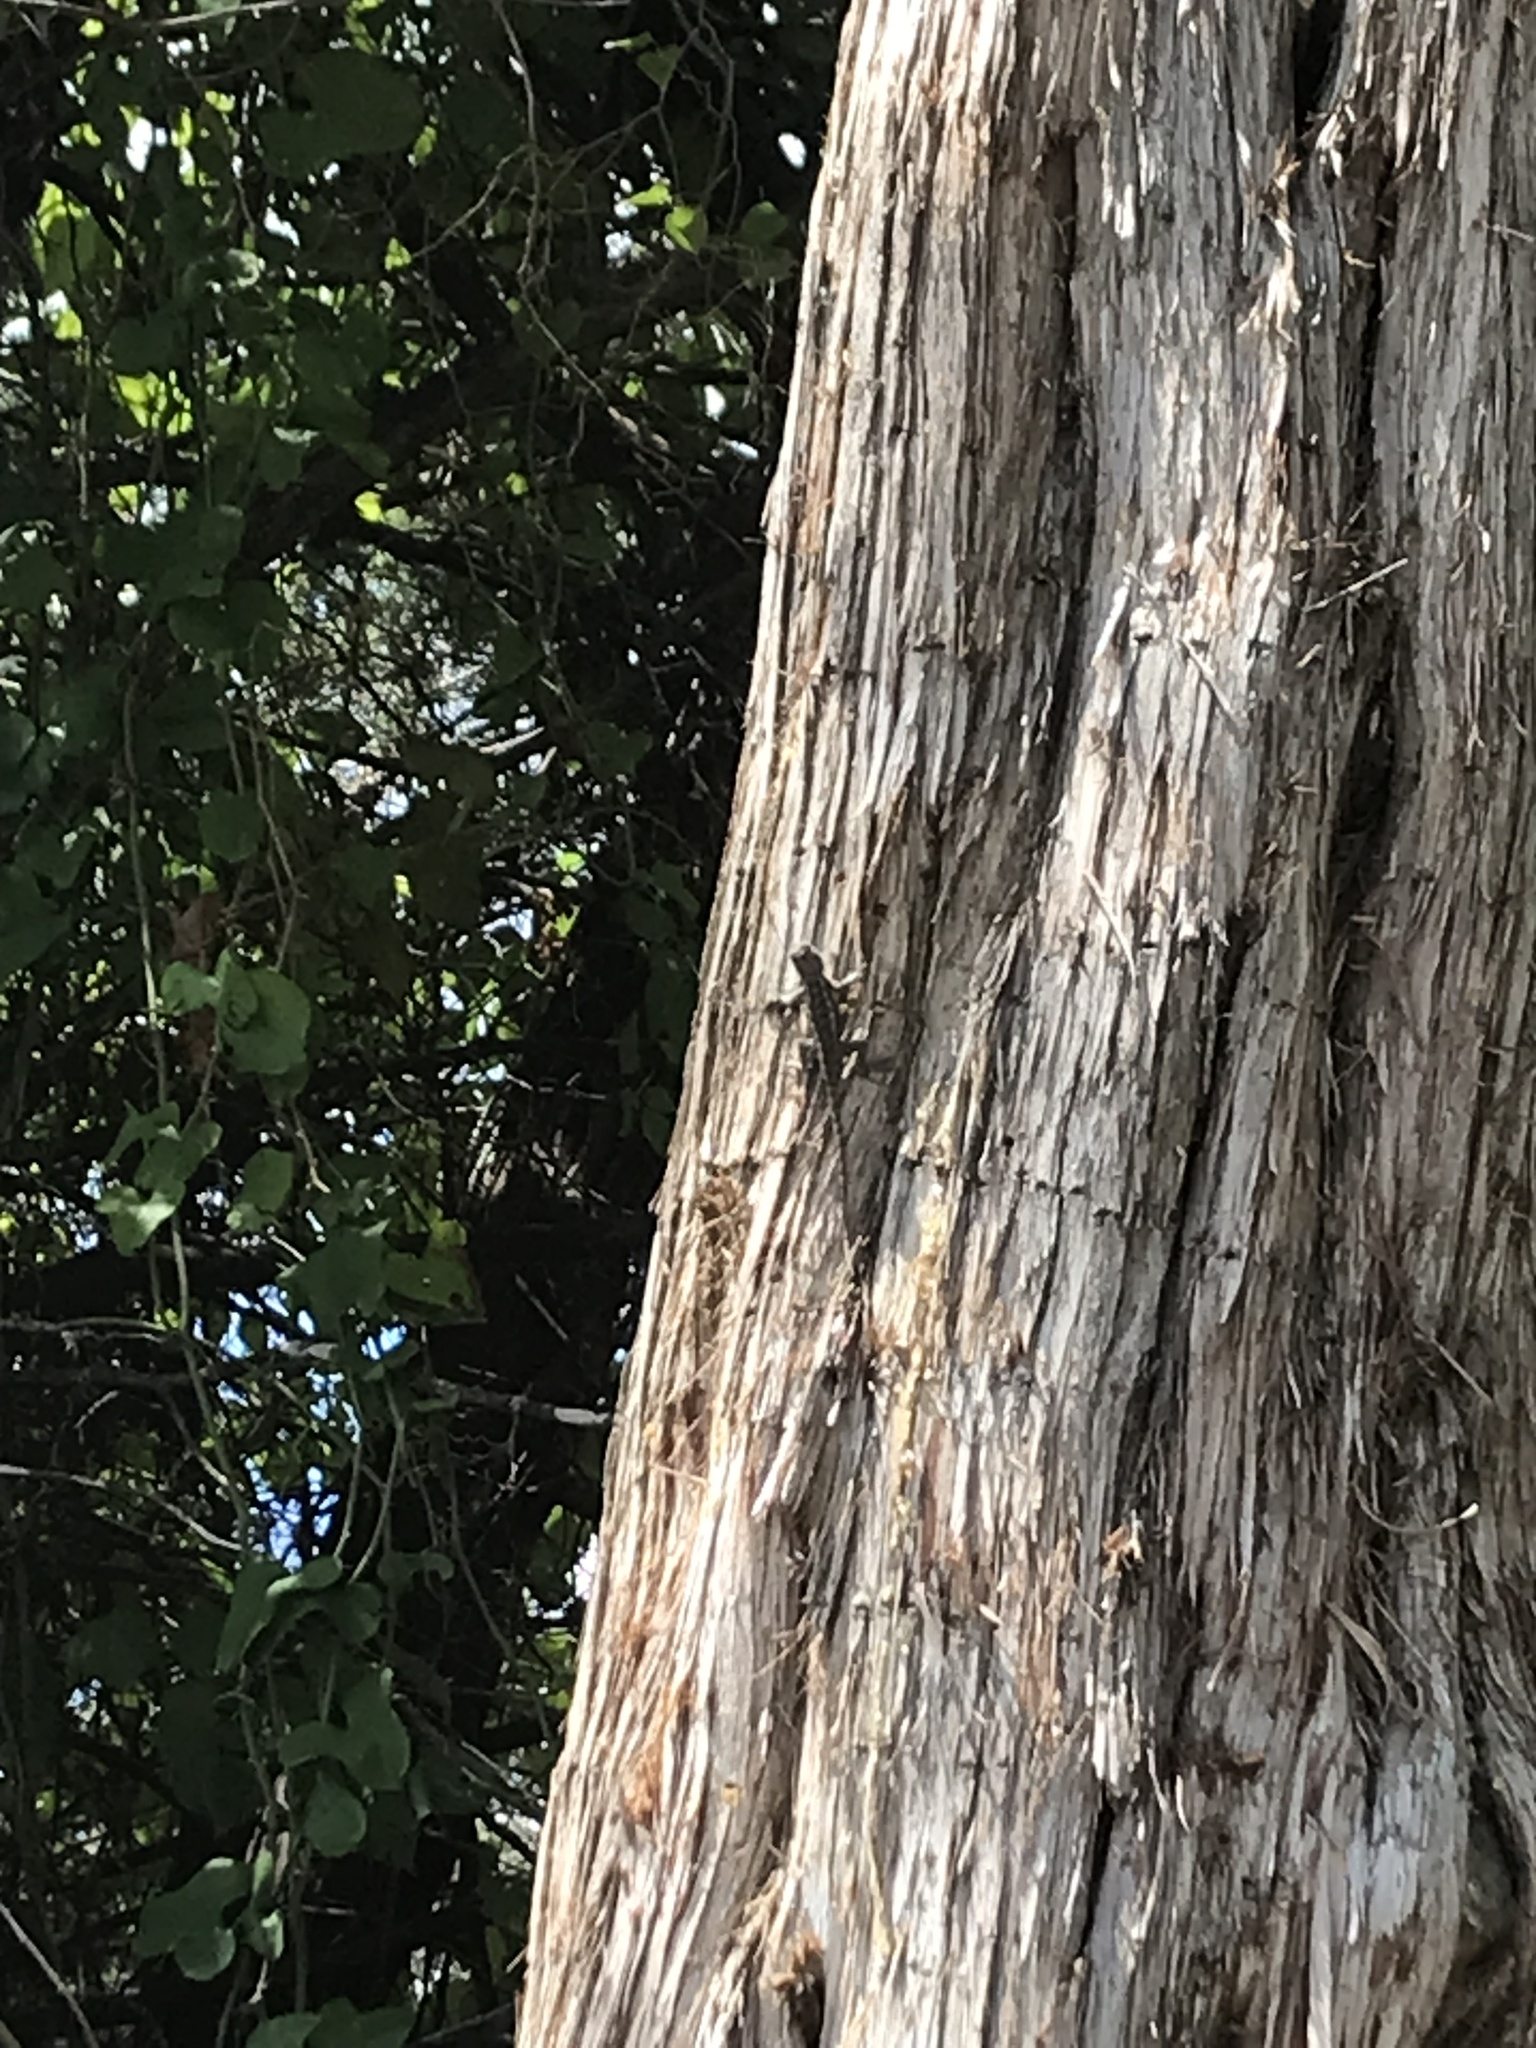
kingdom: Animalia
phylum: Chordata
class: Squamata
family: Phrynosomatidae
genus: Sceloporus
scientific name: Sceloporus olivaceus
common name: Texas spiny lizard
